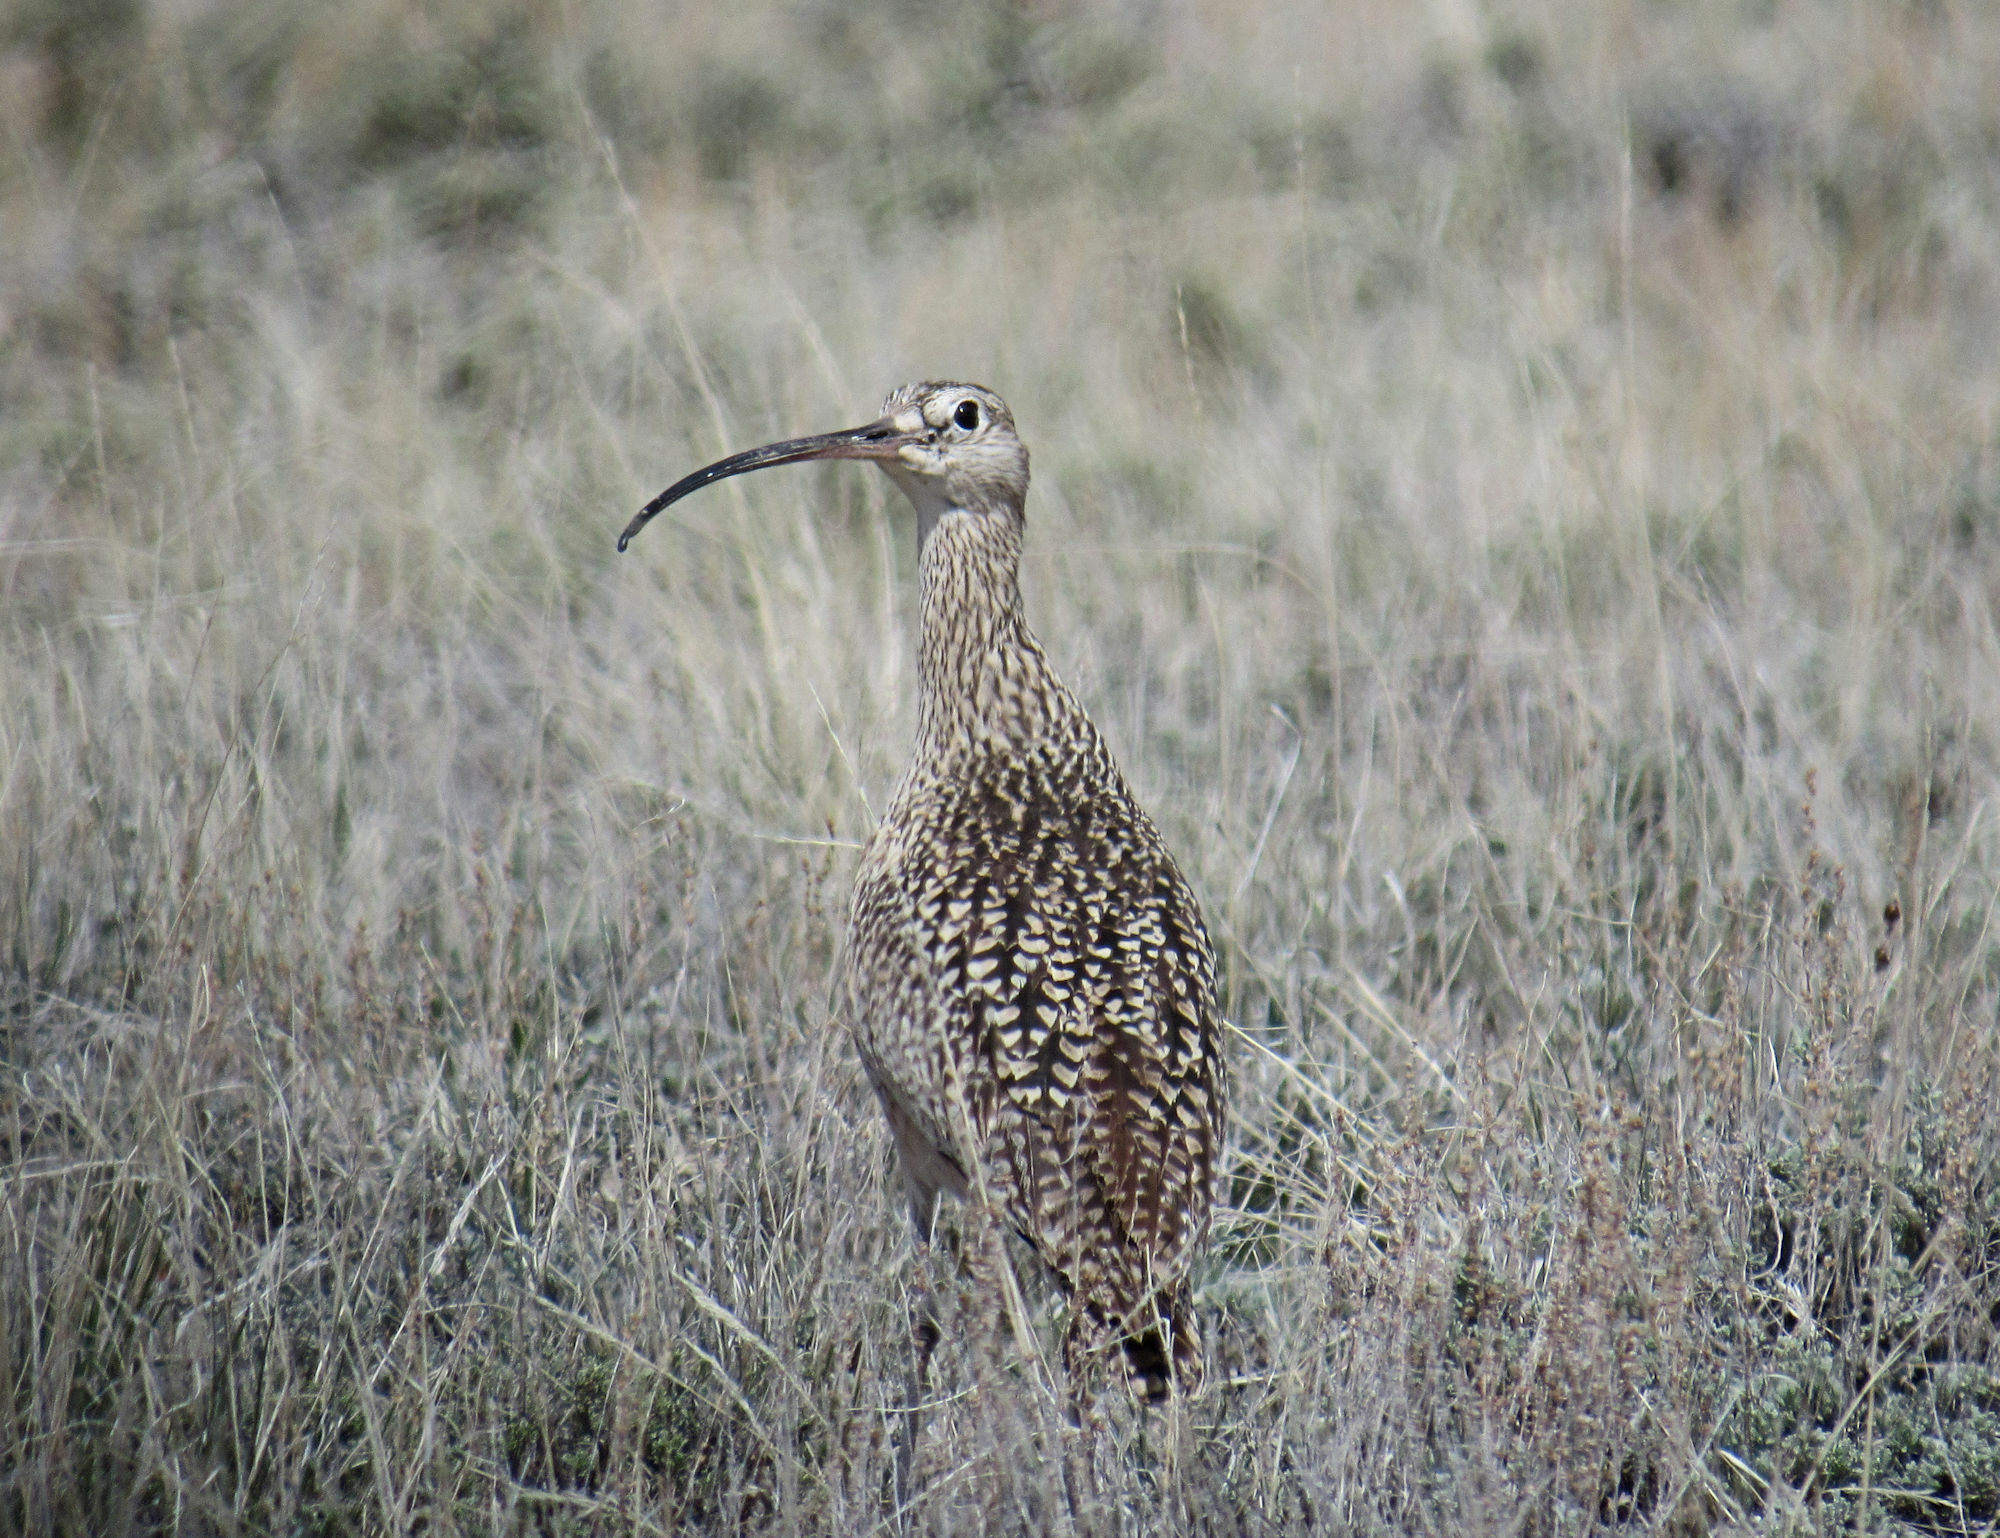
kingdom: Animalia
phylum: Chordata
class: Aves
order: Charadriiformes
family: Scolopacidae
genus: Numenius
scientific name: Numenius americanus
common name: Long-billed curlew
